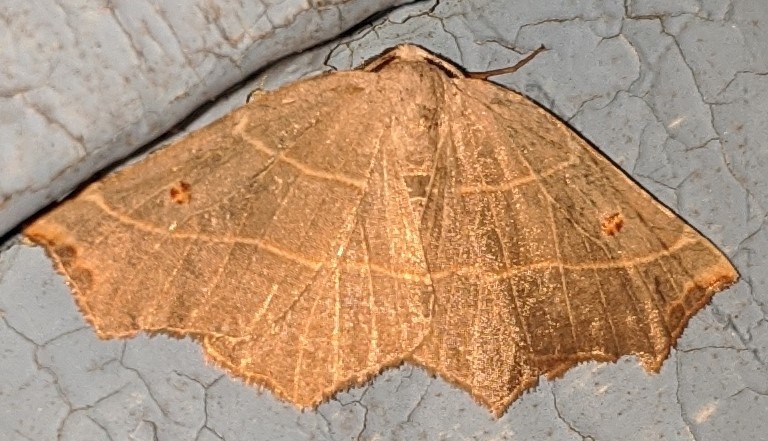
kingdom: Animalia
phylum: Arthropoda
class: Insecta
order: Lepidoptera
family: Geometridae
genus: Metanema
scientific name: Metanema inatomaria
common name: Pale metanema
